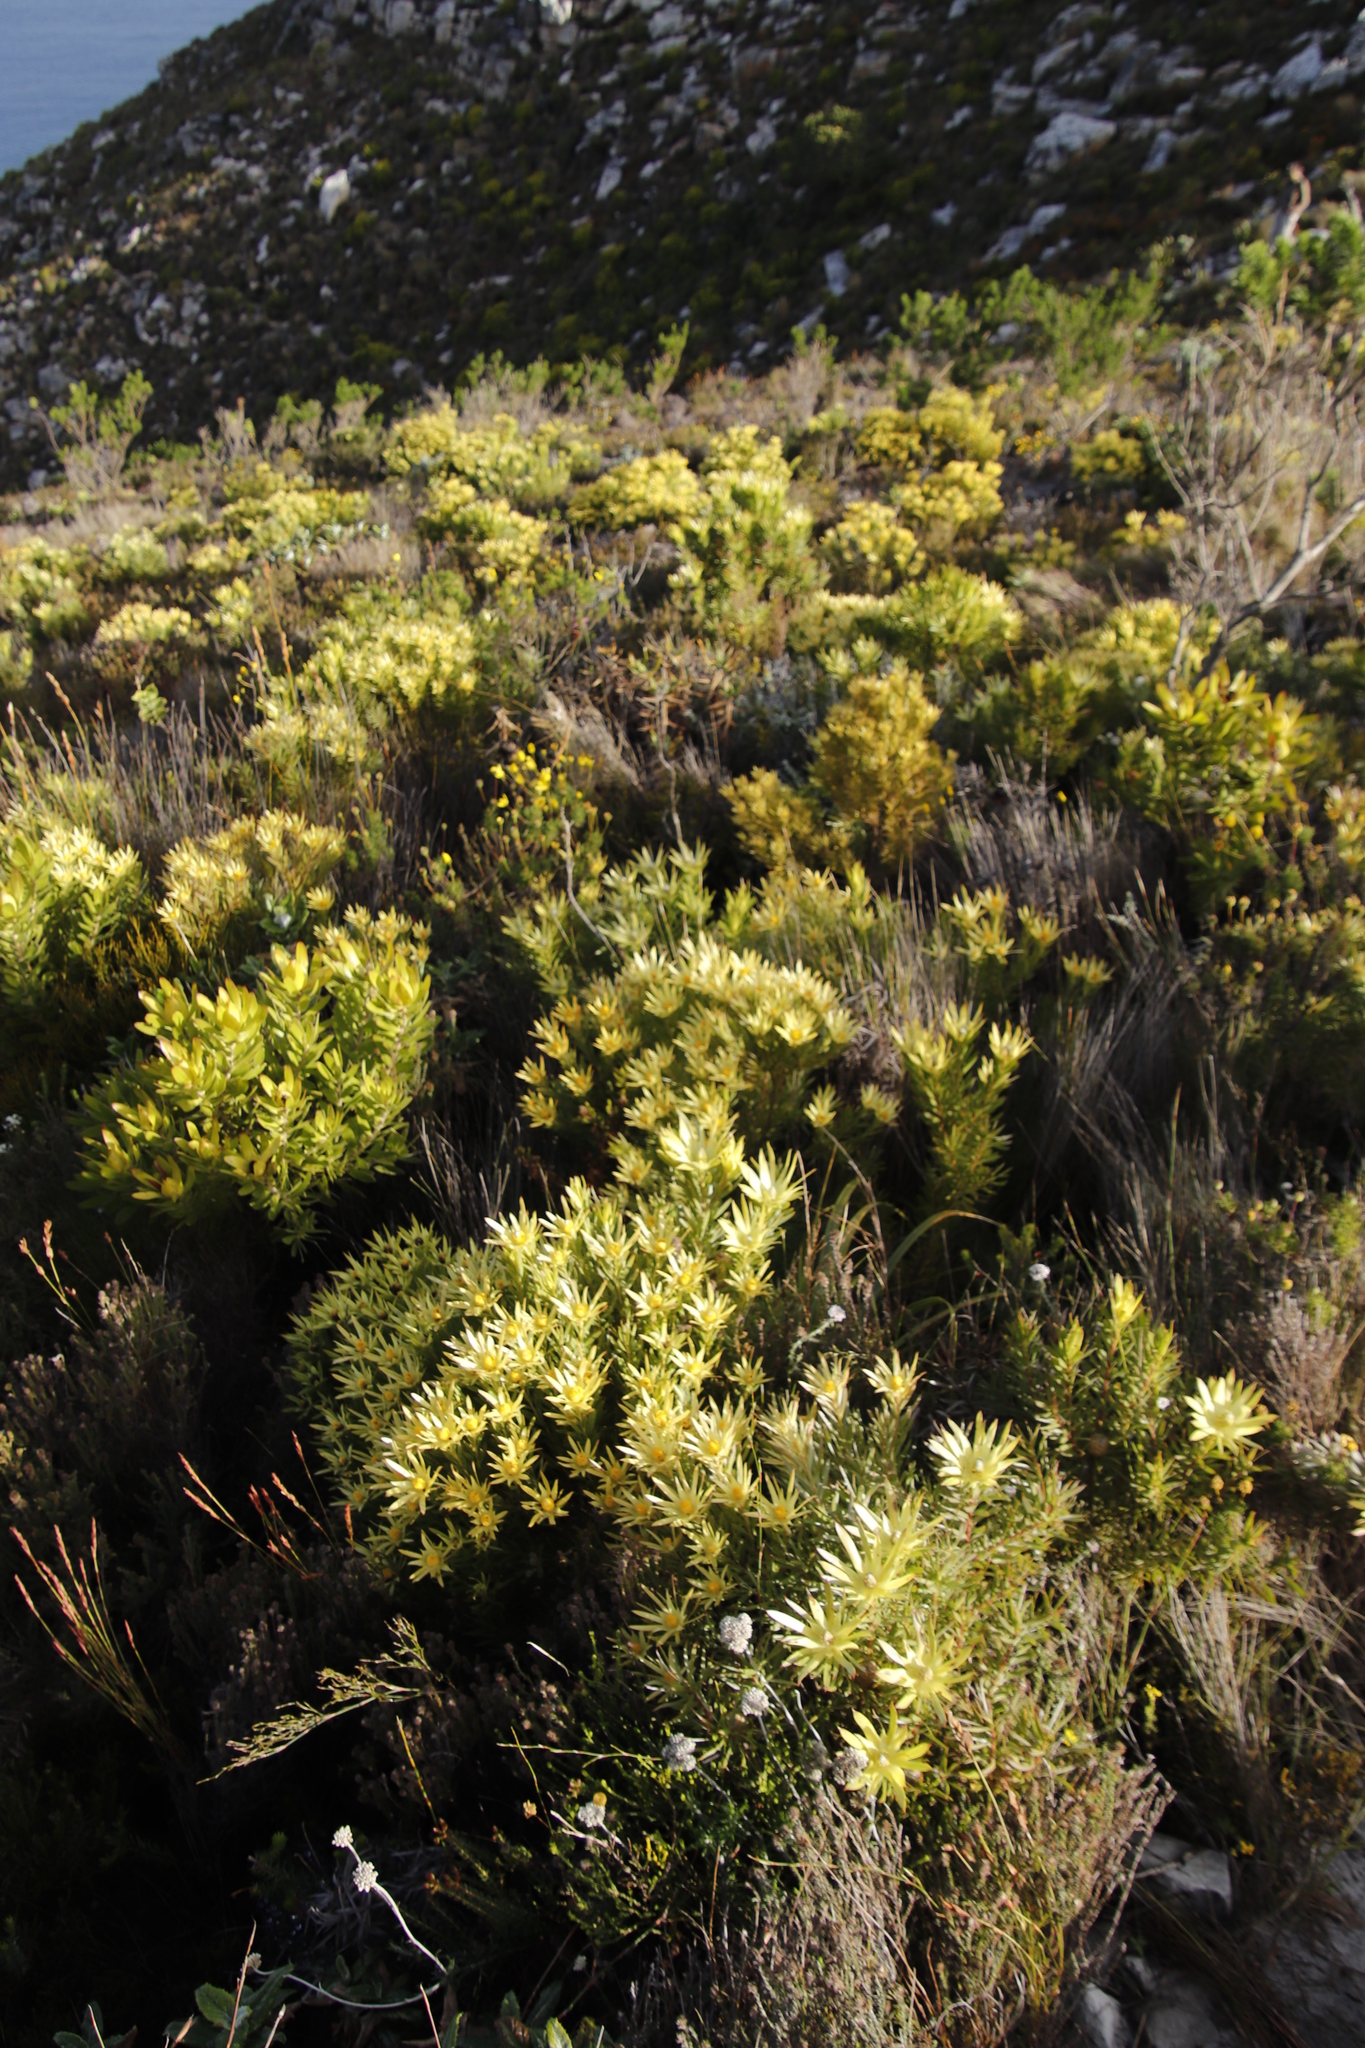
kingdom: Plantae
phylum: Tracheophyta
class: Magnoliopsida
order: Proteales
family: Proteaceae
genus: Leucadendron
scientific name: Leucadendron xanthoconus
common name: Sickle-leaf conebush
